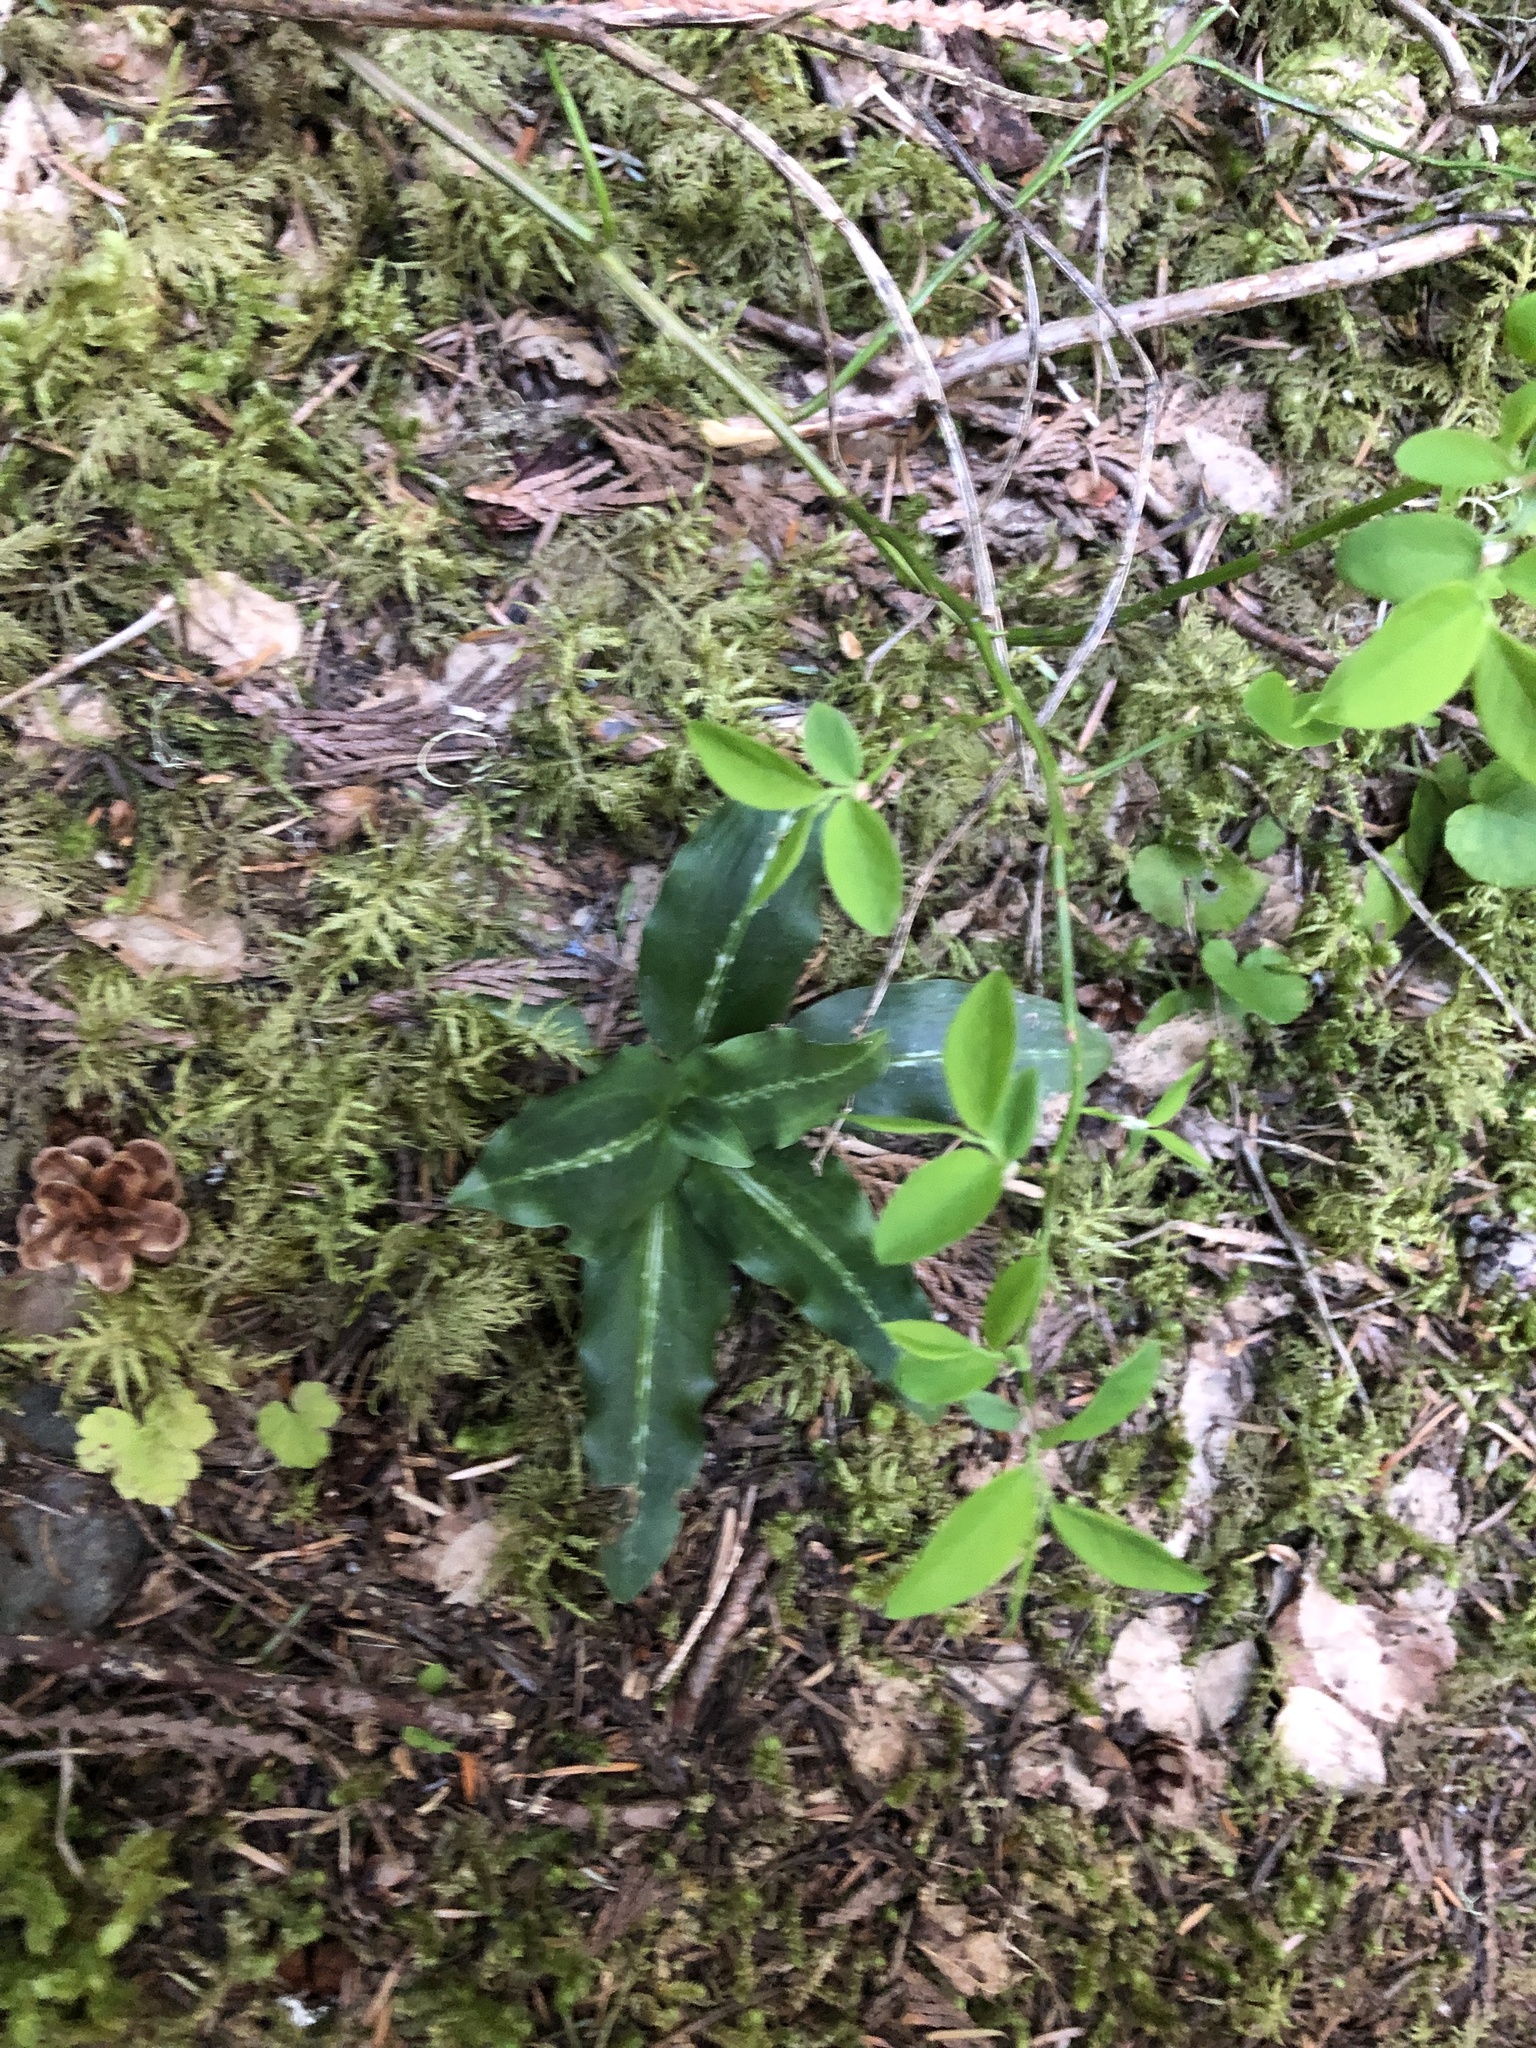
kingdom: Plantae
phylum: Tracheophyta
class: Liliopsida
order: Asparagales
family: Orchidaceae
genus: Goodyera
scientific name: Goodyera oblongifolia
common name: Giant rattlesnake-plantain
